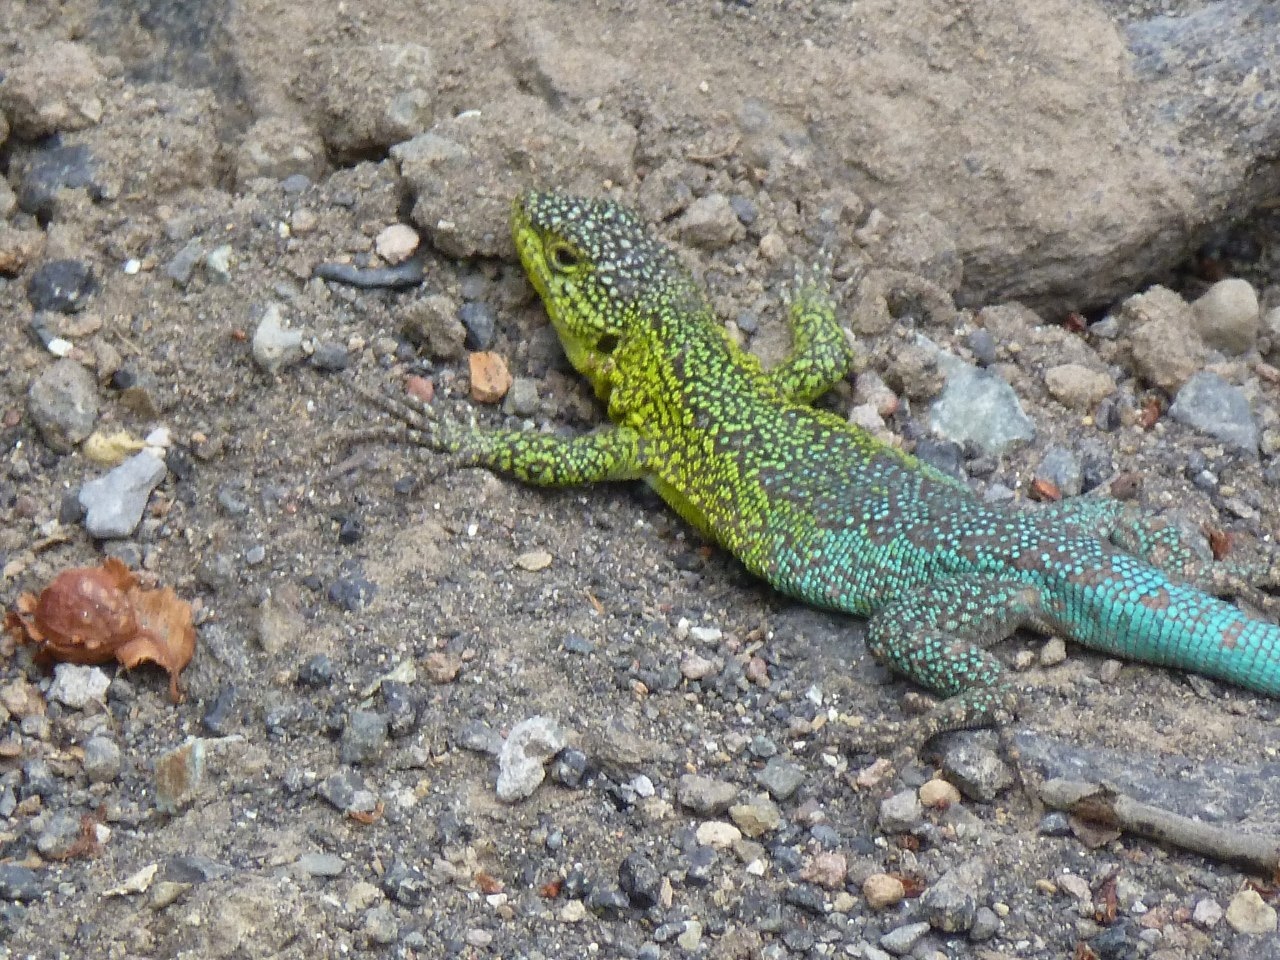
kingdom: Animalia
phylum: Chordata
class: Squamata
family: Liolaemidae
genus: Liolaemus
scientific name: Liolaemus tenuis
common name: Thin tree iguana
